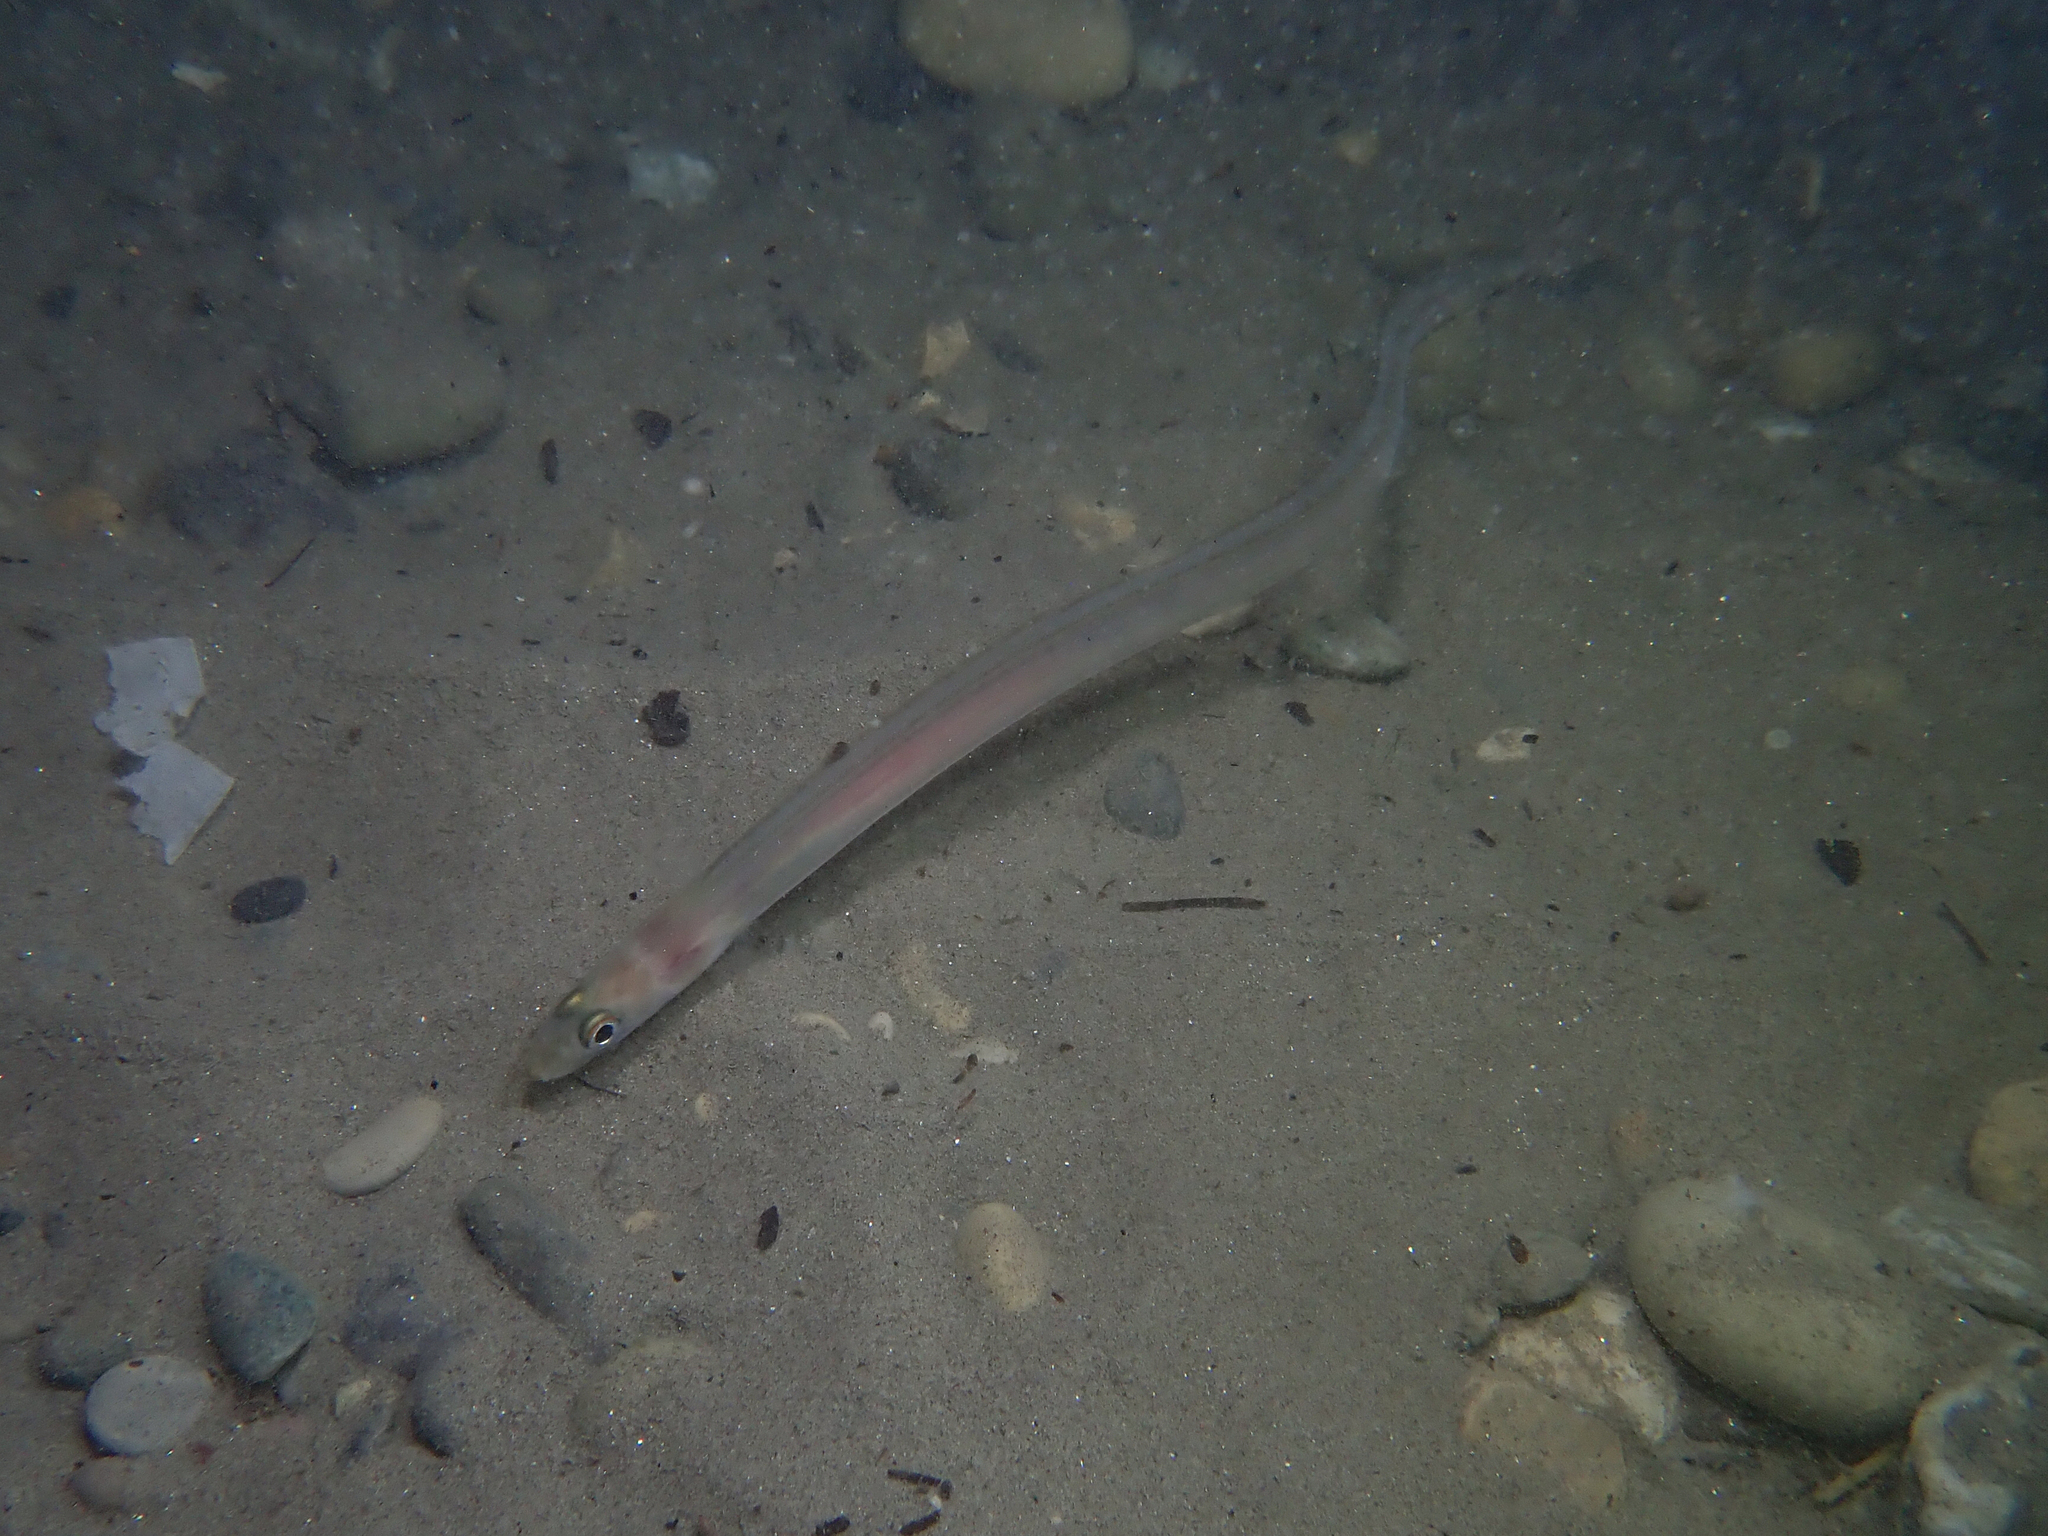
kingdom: Animalia
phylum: Chordata
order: Anguilliformes
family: Congridae
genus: Ariosoma
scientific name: Ariosoma balearicum
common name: Bandtooth conger
